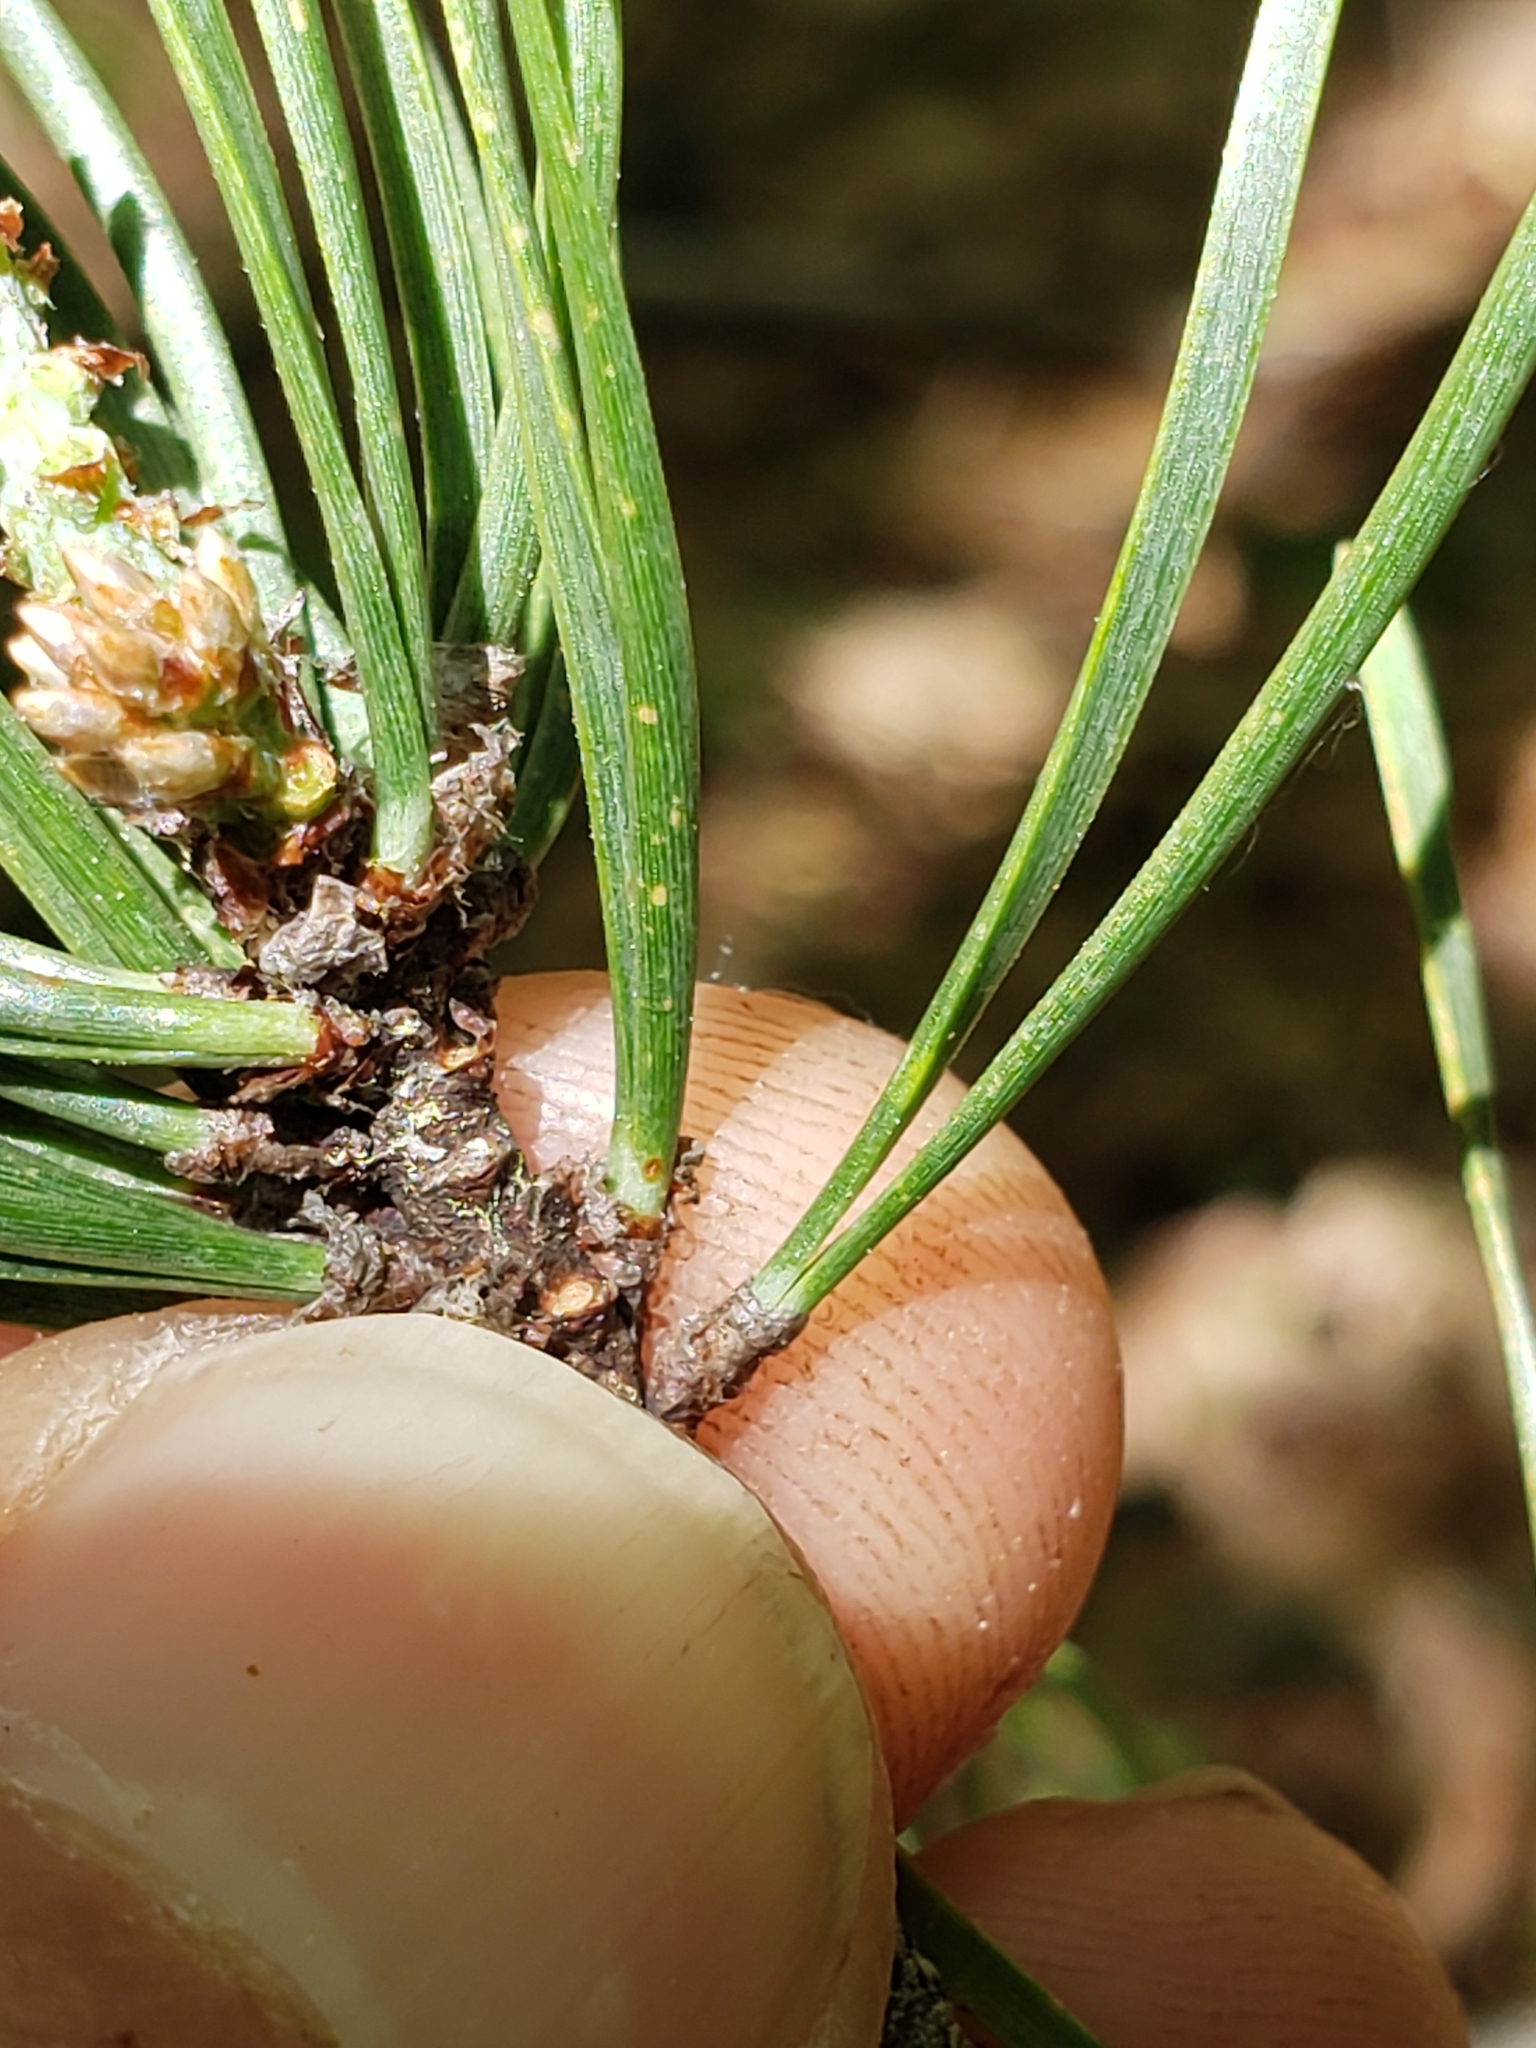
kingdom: Plantae
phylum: Tracheophyta
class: Pinopsida
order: Pinales
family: Pinaceae
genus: Pinus
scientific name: Pinus virginiana
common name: Scrub pine
